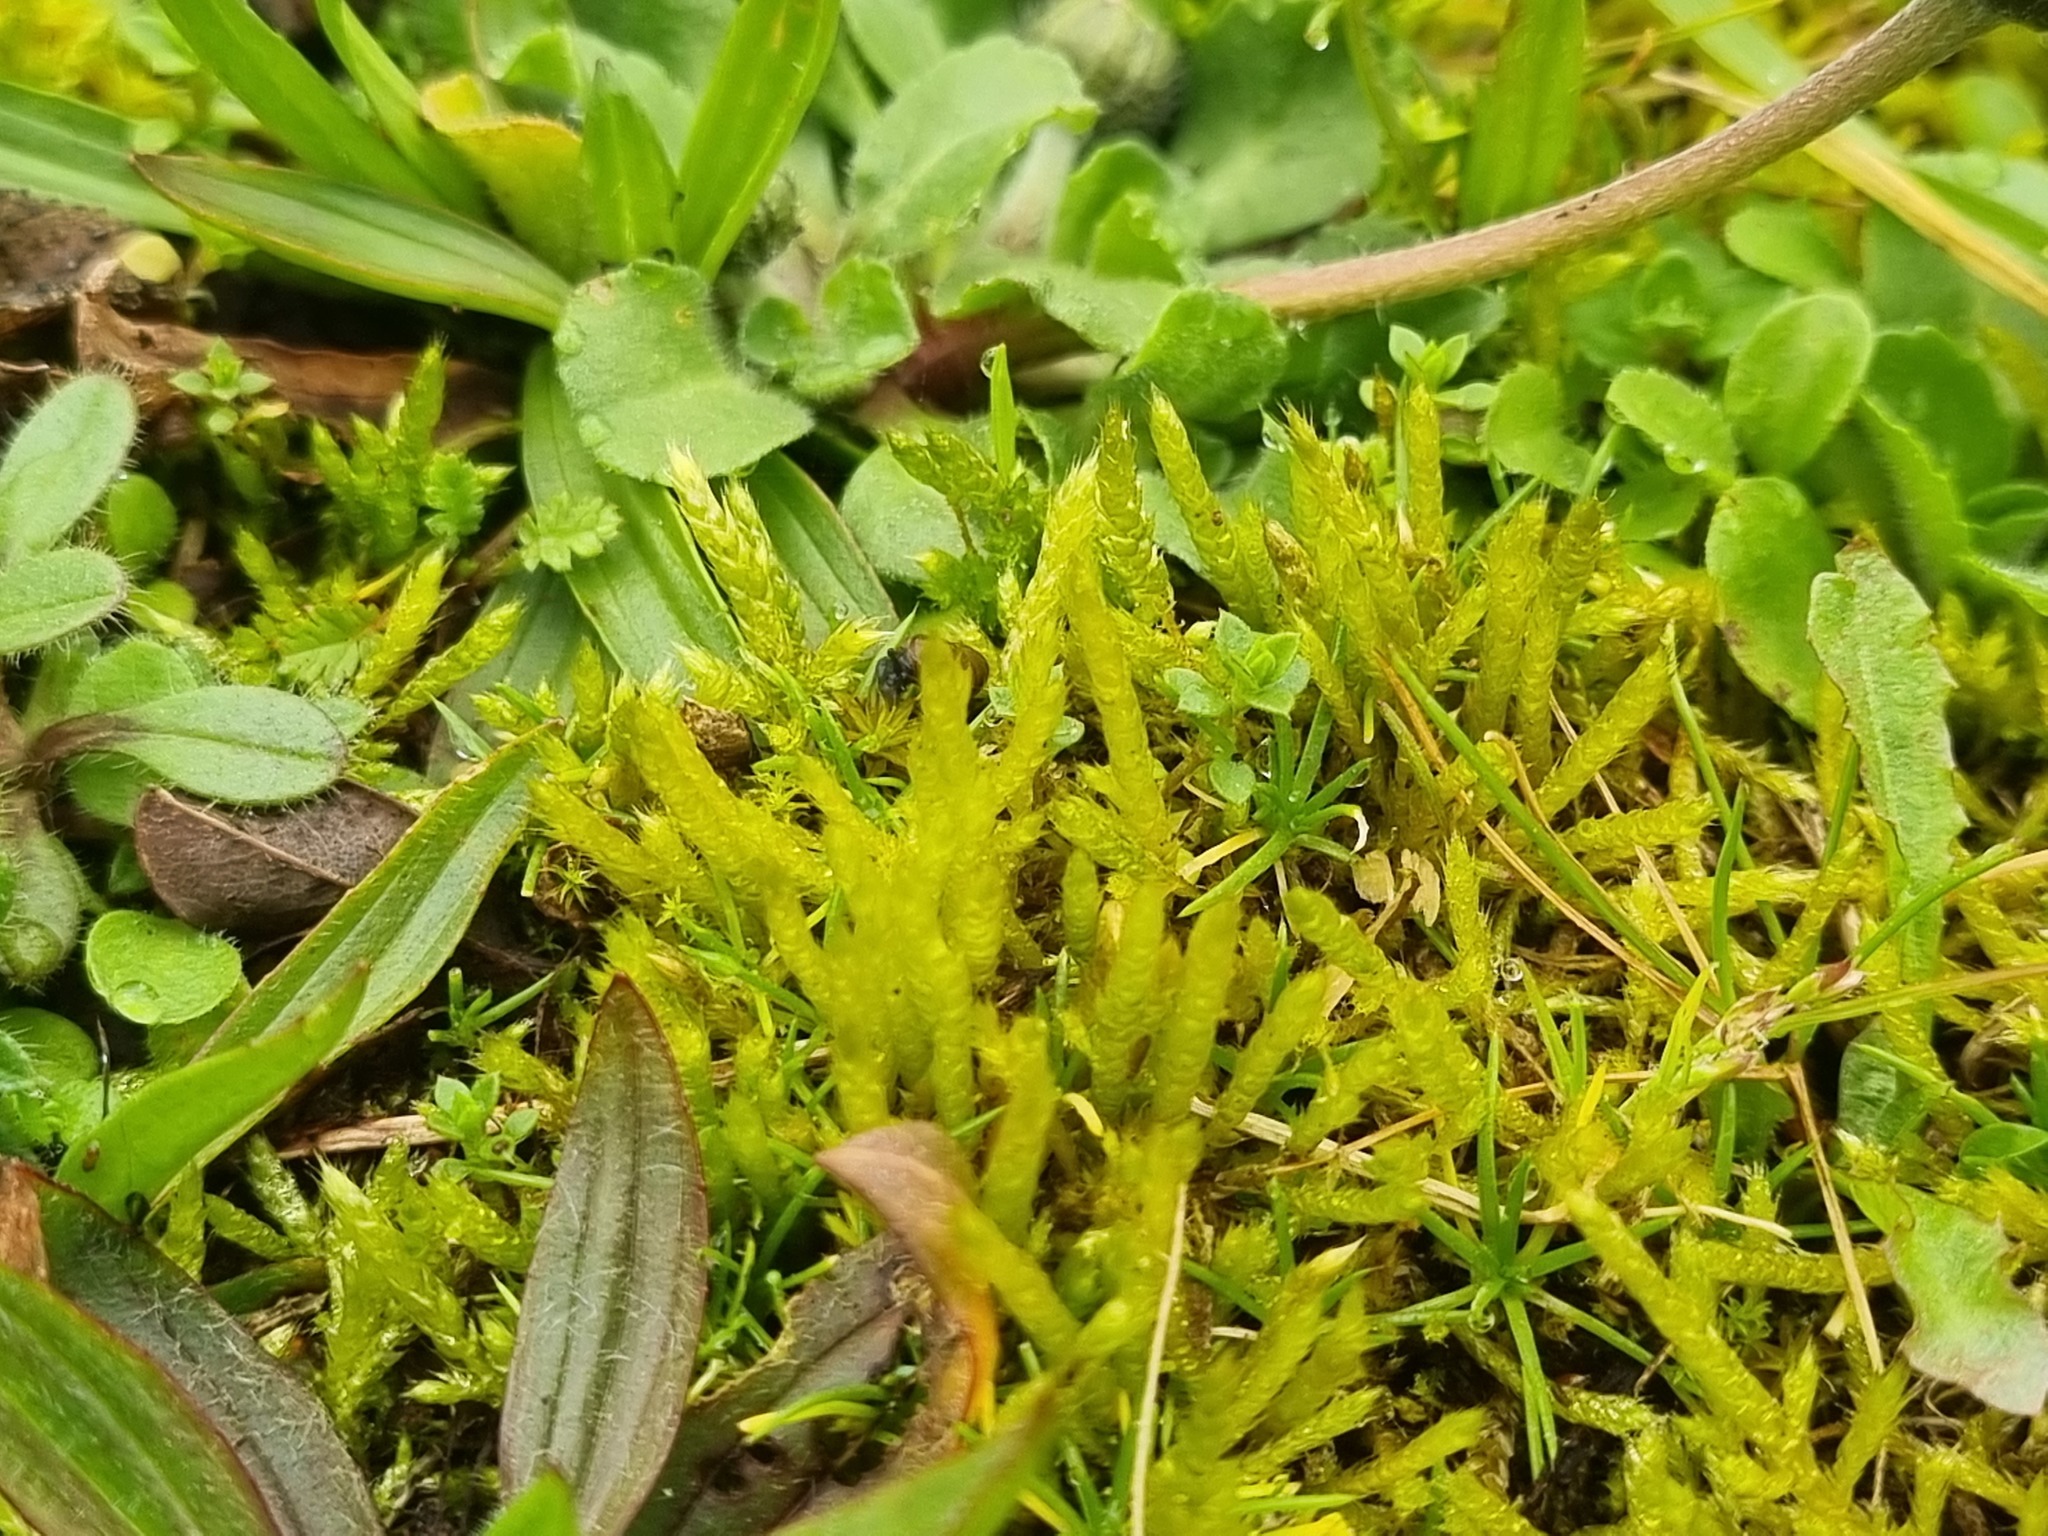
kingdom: Plantae
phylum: Bryophyta
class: Bryopsida
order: Hypnales
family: Brachytheciaceae
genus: Brachythecium
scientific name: Brachythecium albicans
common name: Whitish ragged moss
